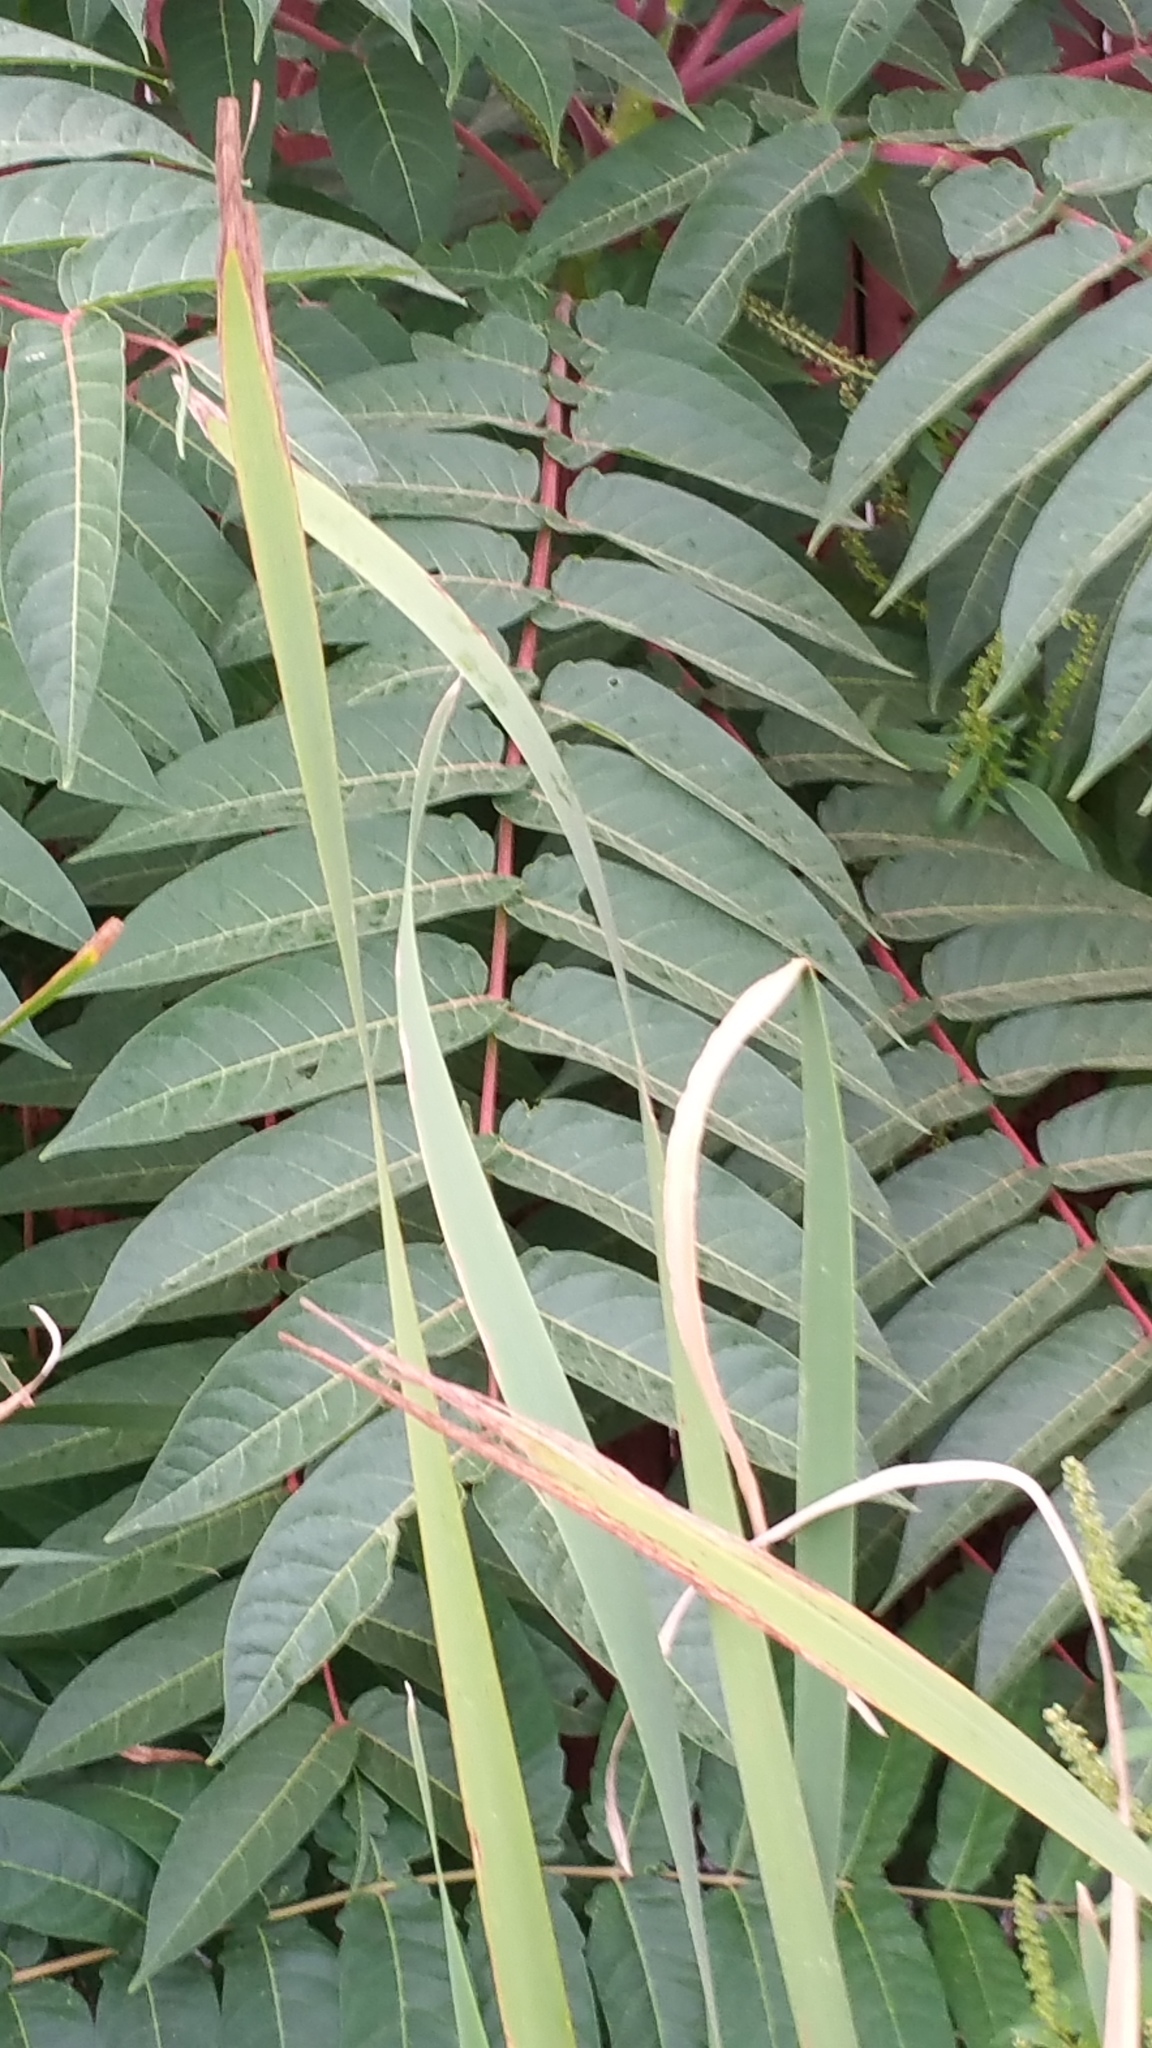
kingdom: Plantae
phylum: Tracheophyta
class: Magnoliopsida
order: Sapindales
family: Simaroubaceae
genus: Ailanthus
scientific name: Ailanthus altissima
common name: Tree-of-heaven
